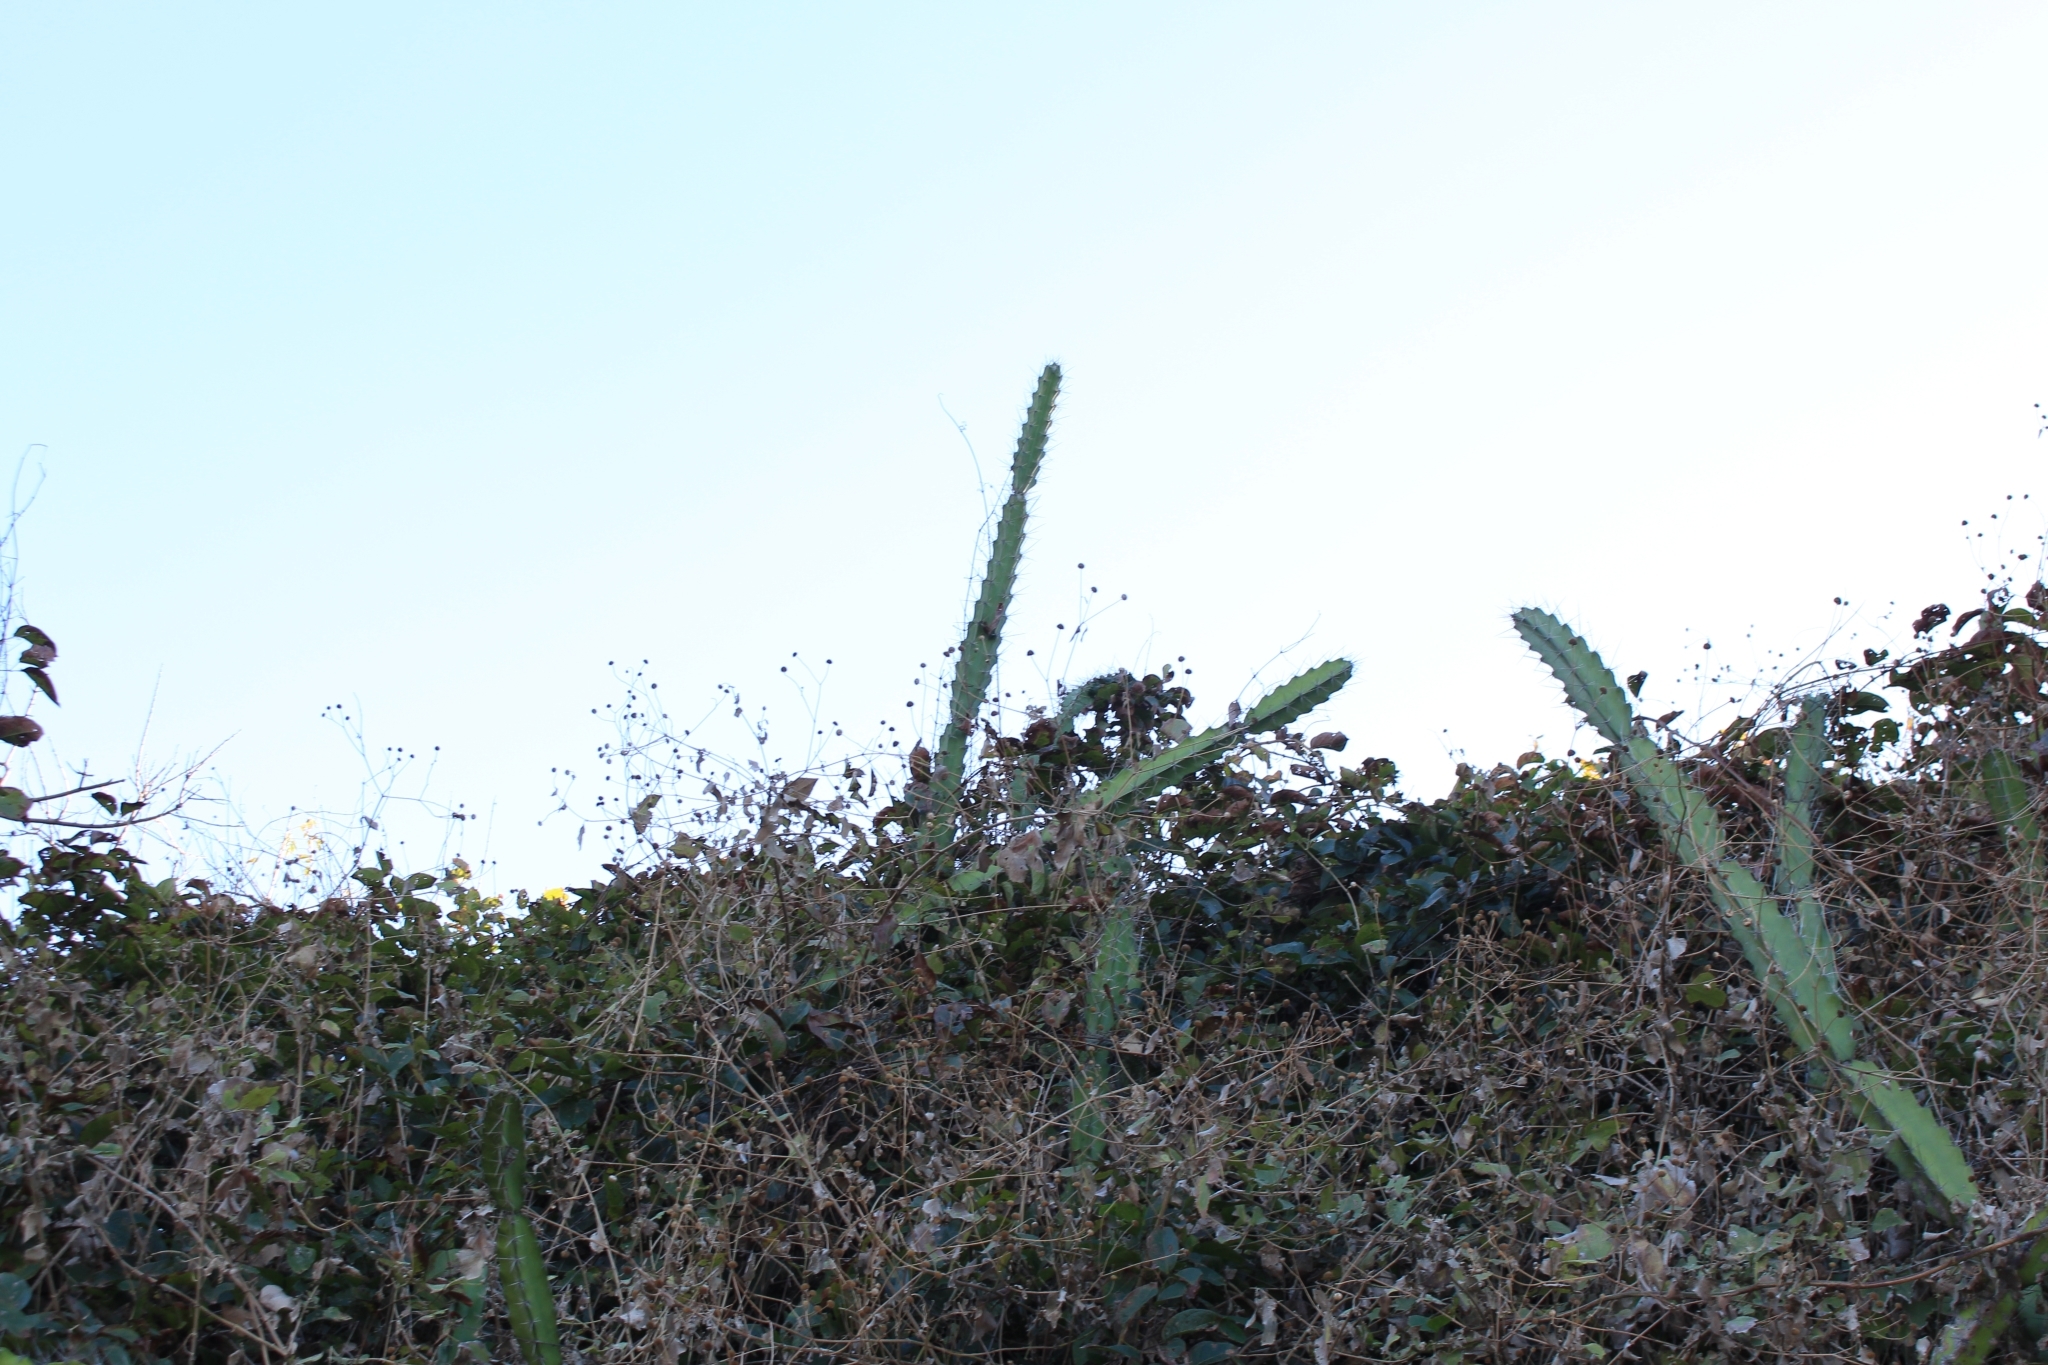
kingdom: Plantae
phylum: Tracheophyta
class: Magnoliopsida
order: Caryophyllales
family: Cactaceae
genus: Acanthocereus
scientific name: Acanthocereus tetragonus
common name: Triangle cactus
